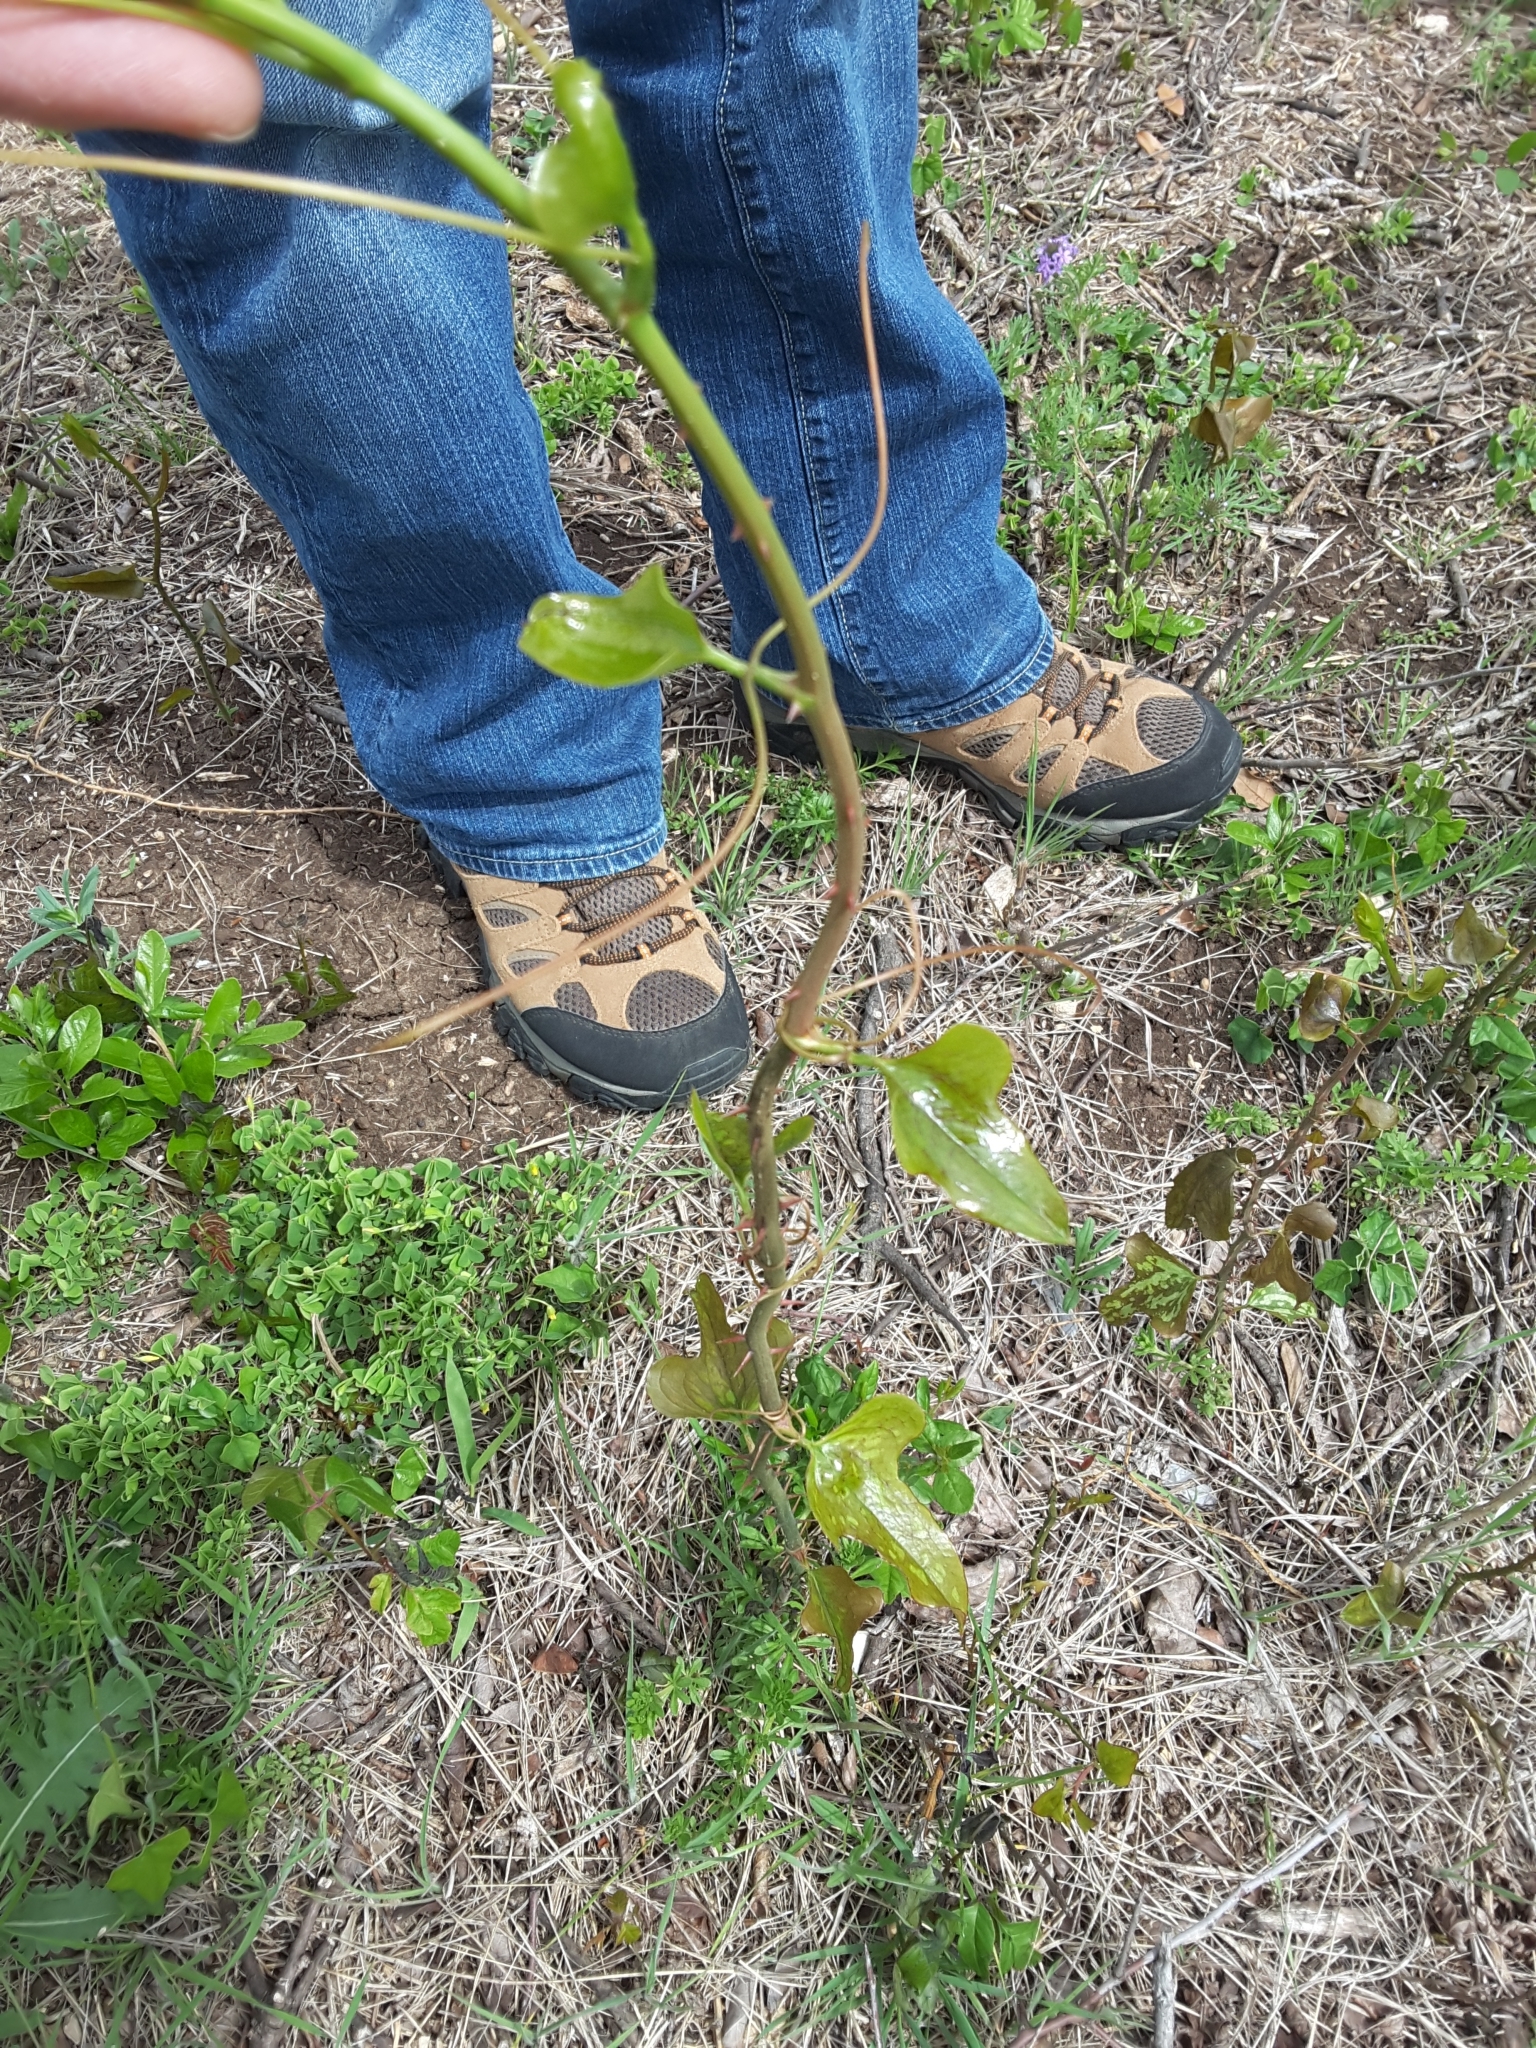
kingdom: Plantae
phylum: Tracheophyta
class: Liliopsida
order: Liliales
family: Smilacaceae
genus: Smilax
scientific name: Smilax bona-nox
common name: Catbrier
